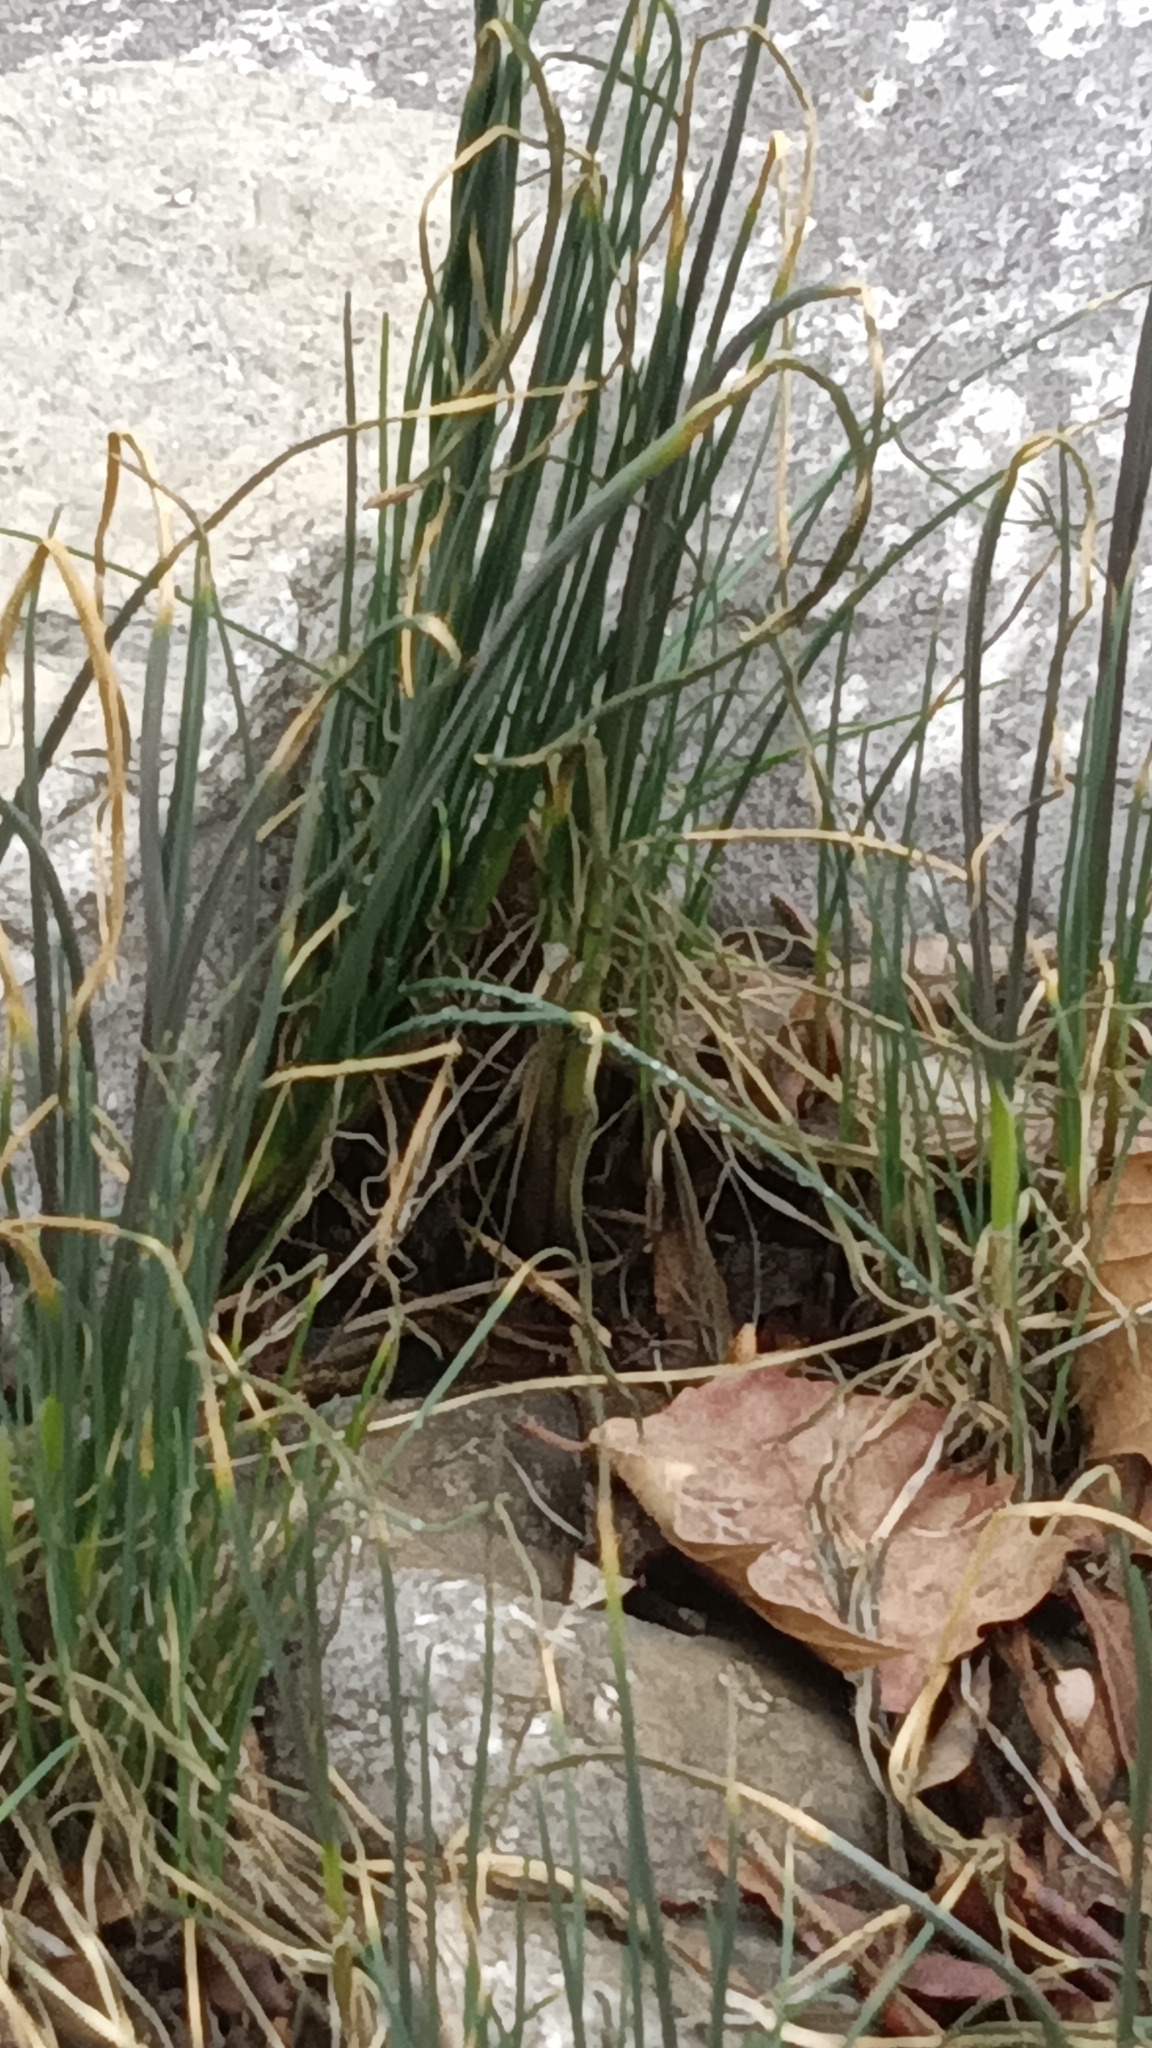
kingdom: Plantae
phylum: Tracheophyta
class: Liliopsida
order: Asparagales
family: Amaryllidaceae
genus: Allium
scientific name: Allium vineale
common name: Crow garlic
